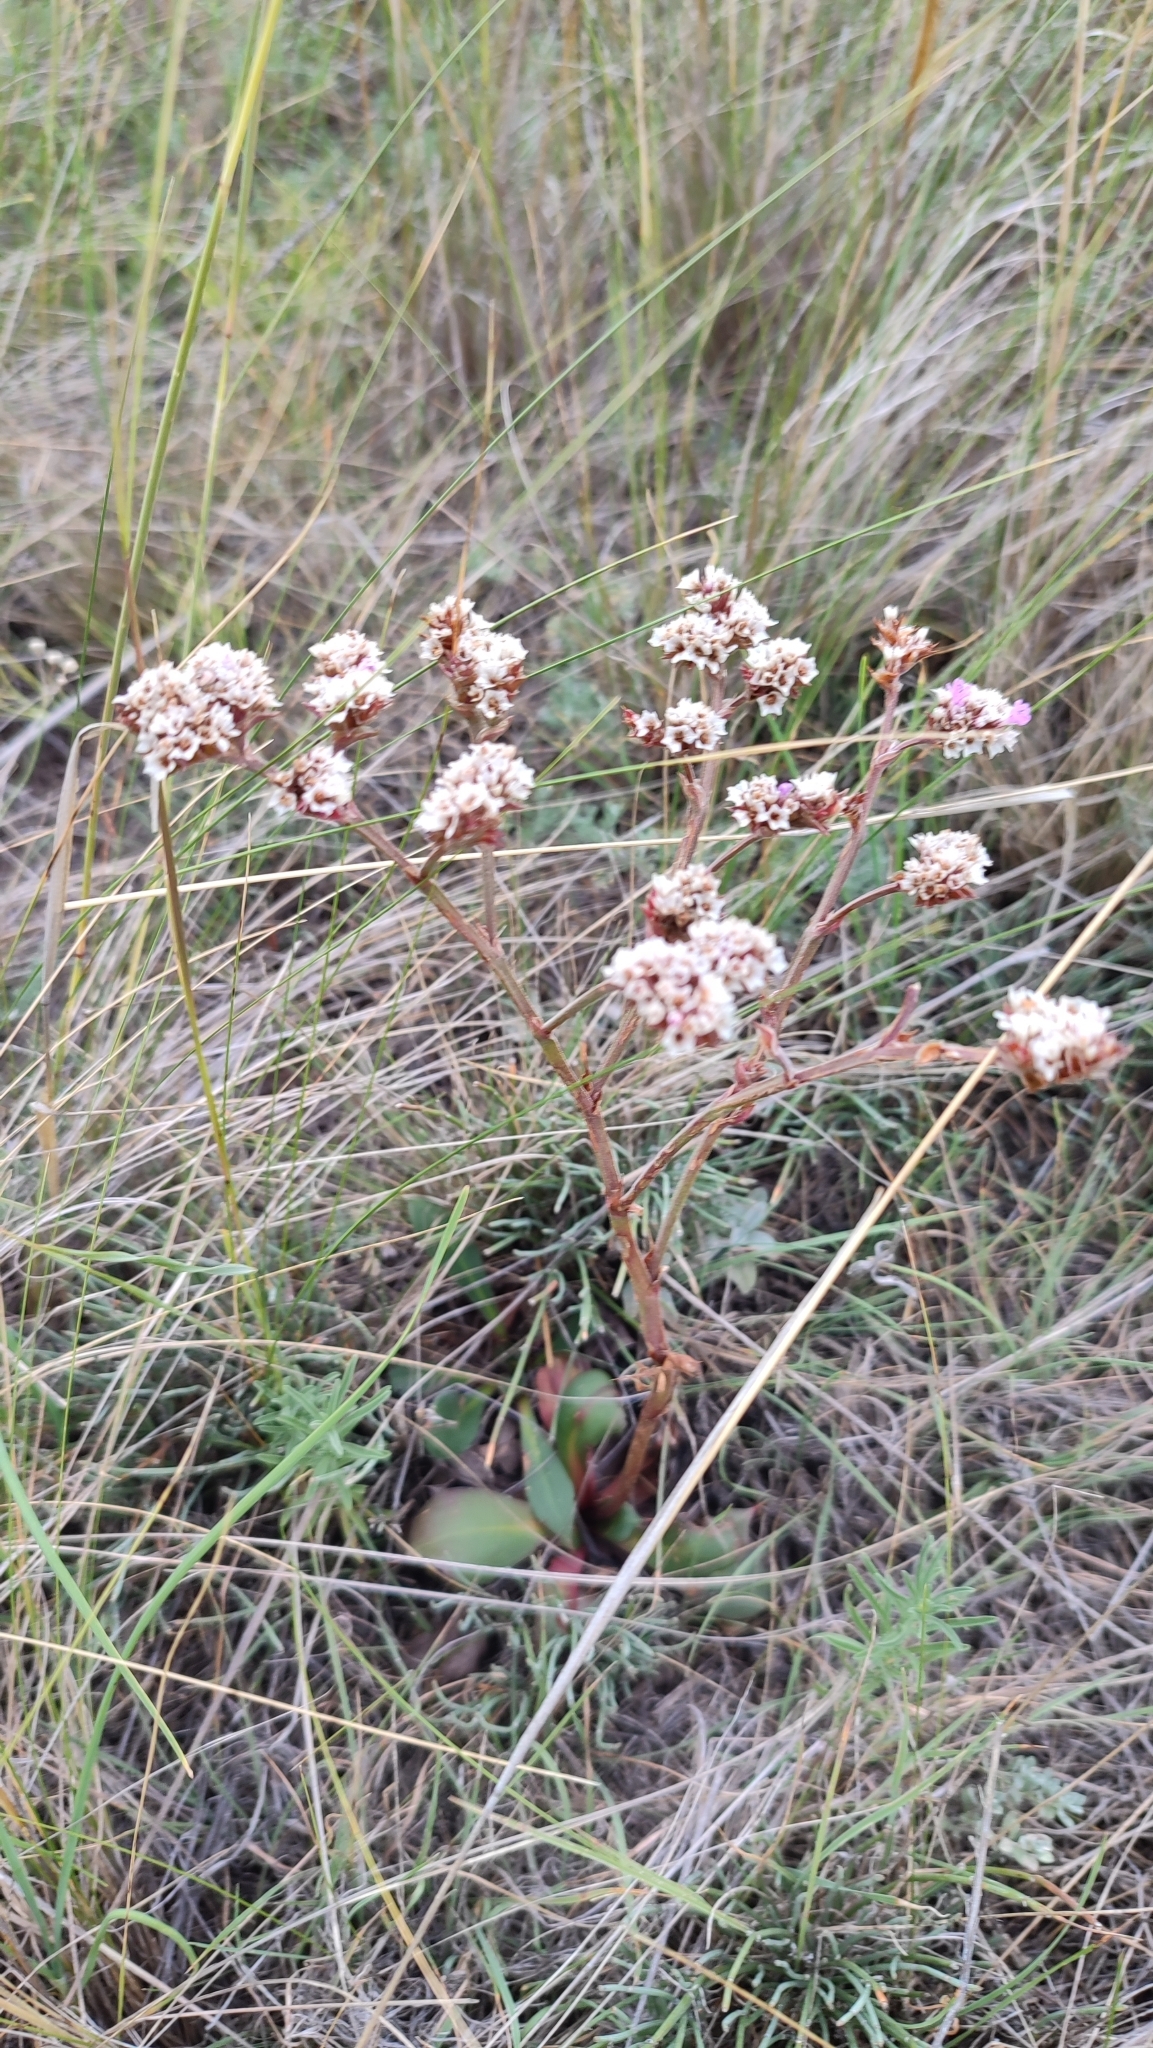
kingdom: Plantae
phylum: Tracheophyta
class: Magnoliopsida
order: Caryophyllales
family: Plumbaginaceae
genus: Goniolimon
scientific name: Goniolimon speciosum
